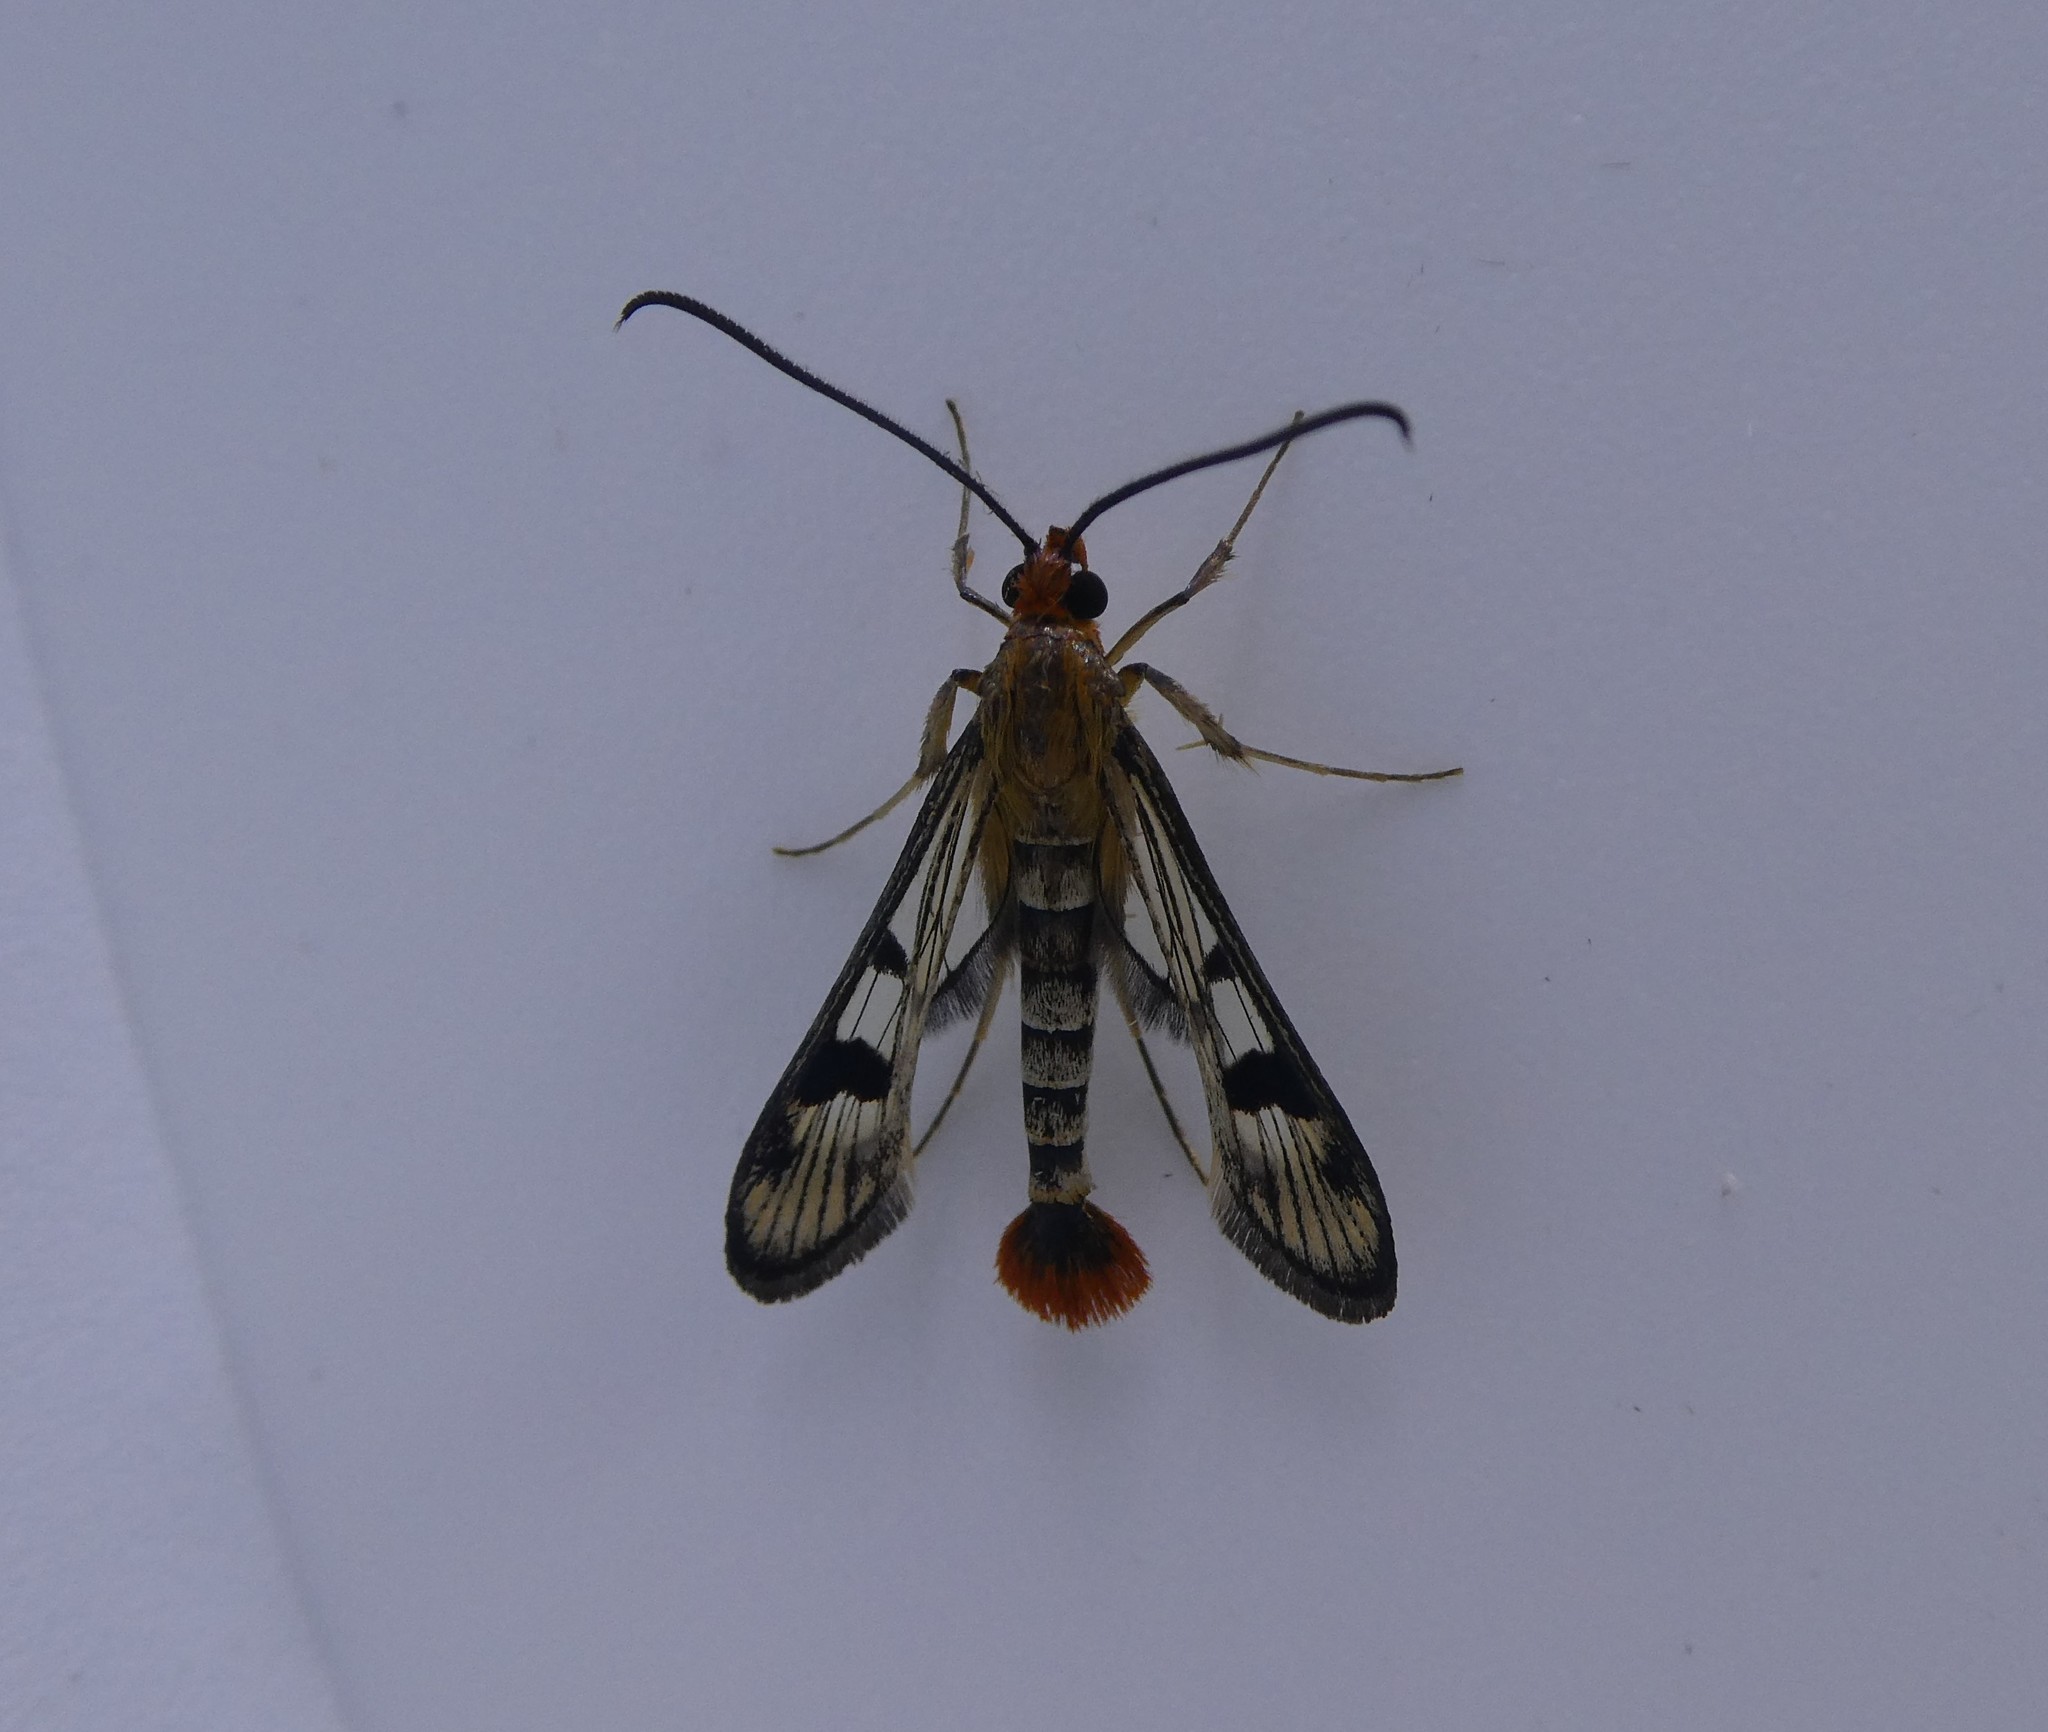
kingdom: Animalia
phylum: Arthropoda
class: Insecta
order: Lepidoptera
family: Sesiidae
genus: Synanthedon
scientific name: Synanthedon acerni
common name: Maple callus borer moth
